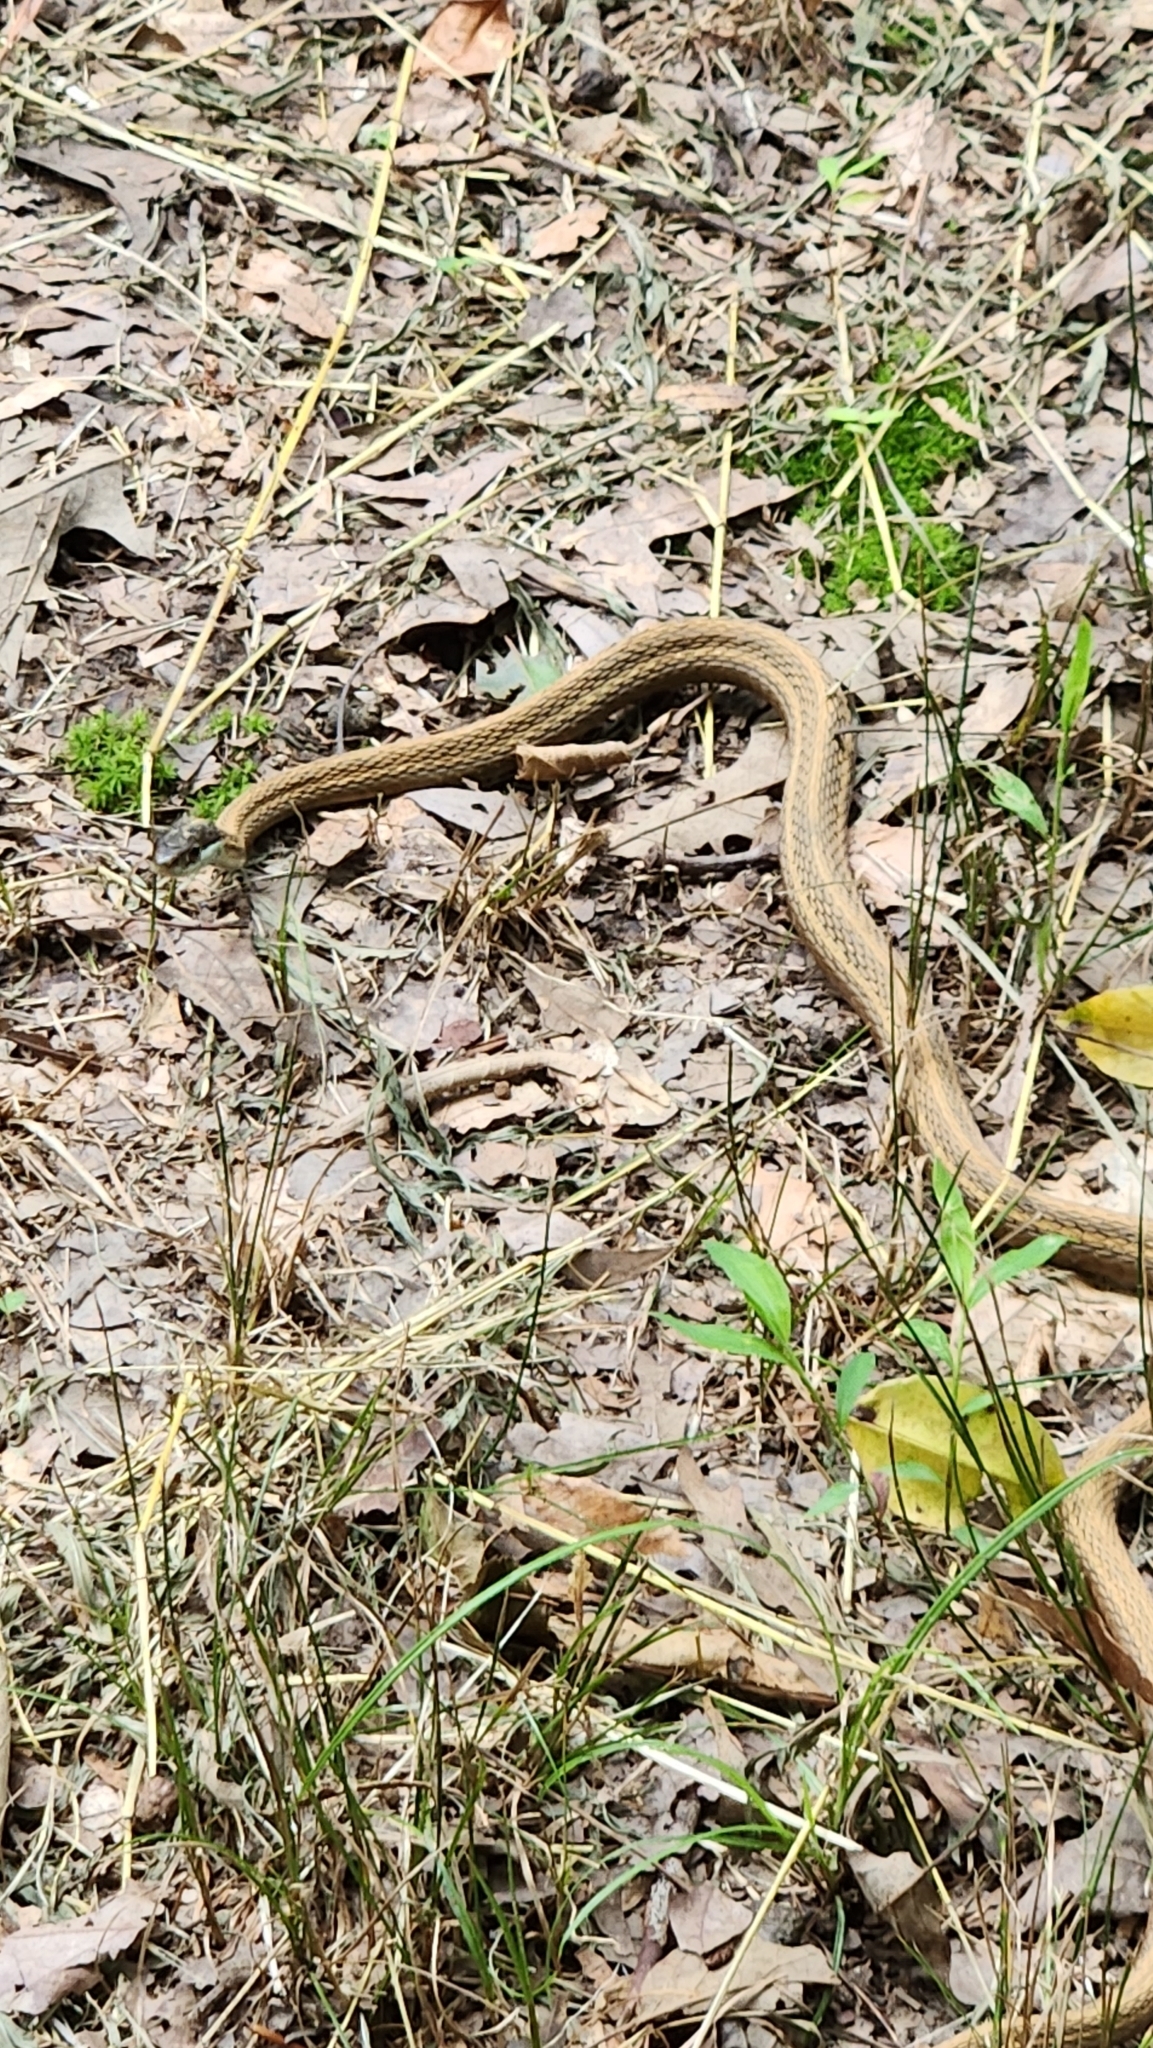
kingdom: Animalia
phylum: Chordata
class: Squamata
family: Colubridae
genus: Thamnophis
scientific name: Thamnophis saurita
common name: Eastern ribbonsnake
